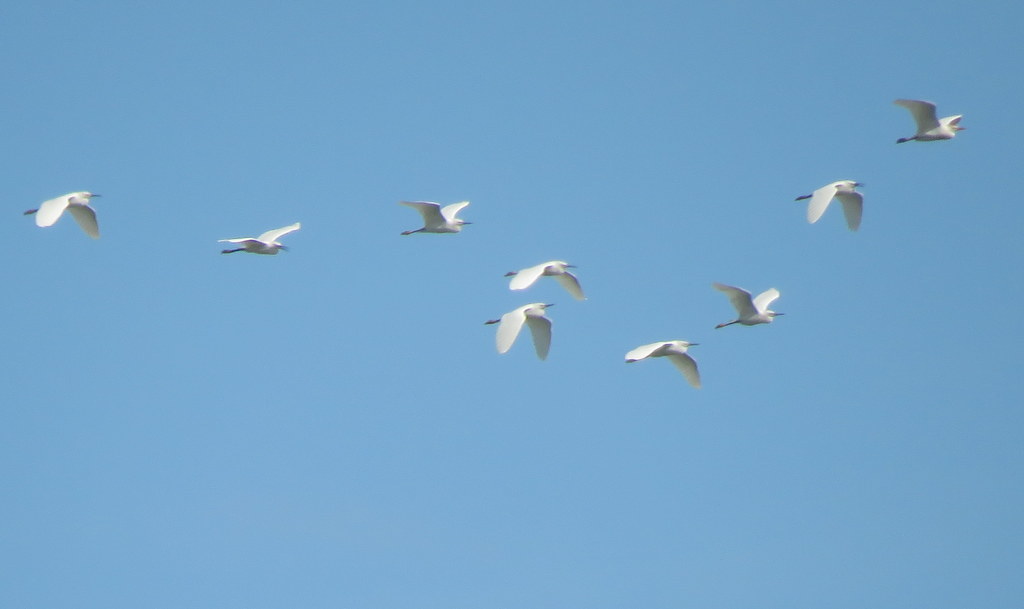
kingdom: Animalia
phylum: Chordata
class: Aves
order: Pelecaniformes
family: Ardeidae
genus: Egretta
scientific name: Egretta thula
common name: Snowy egret
